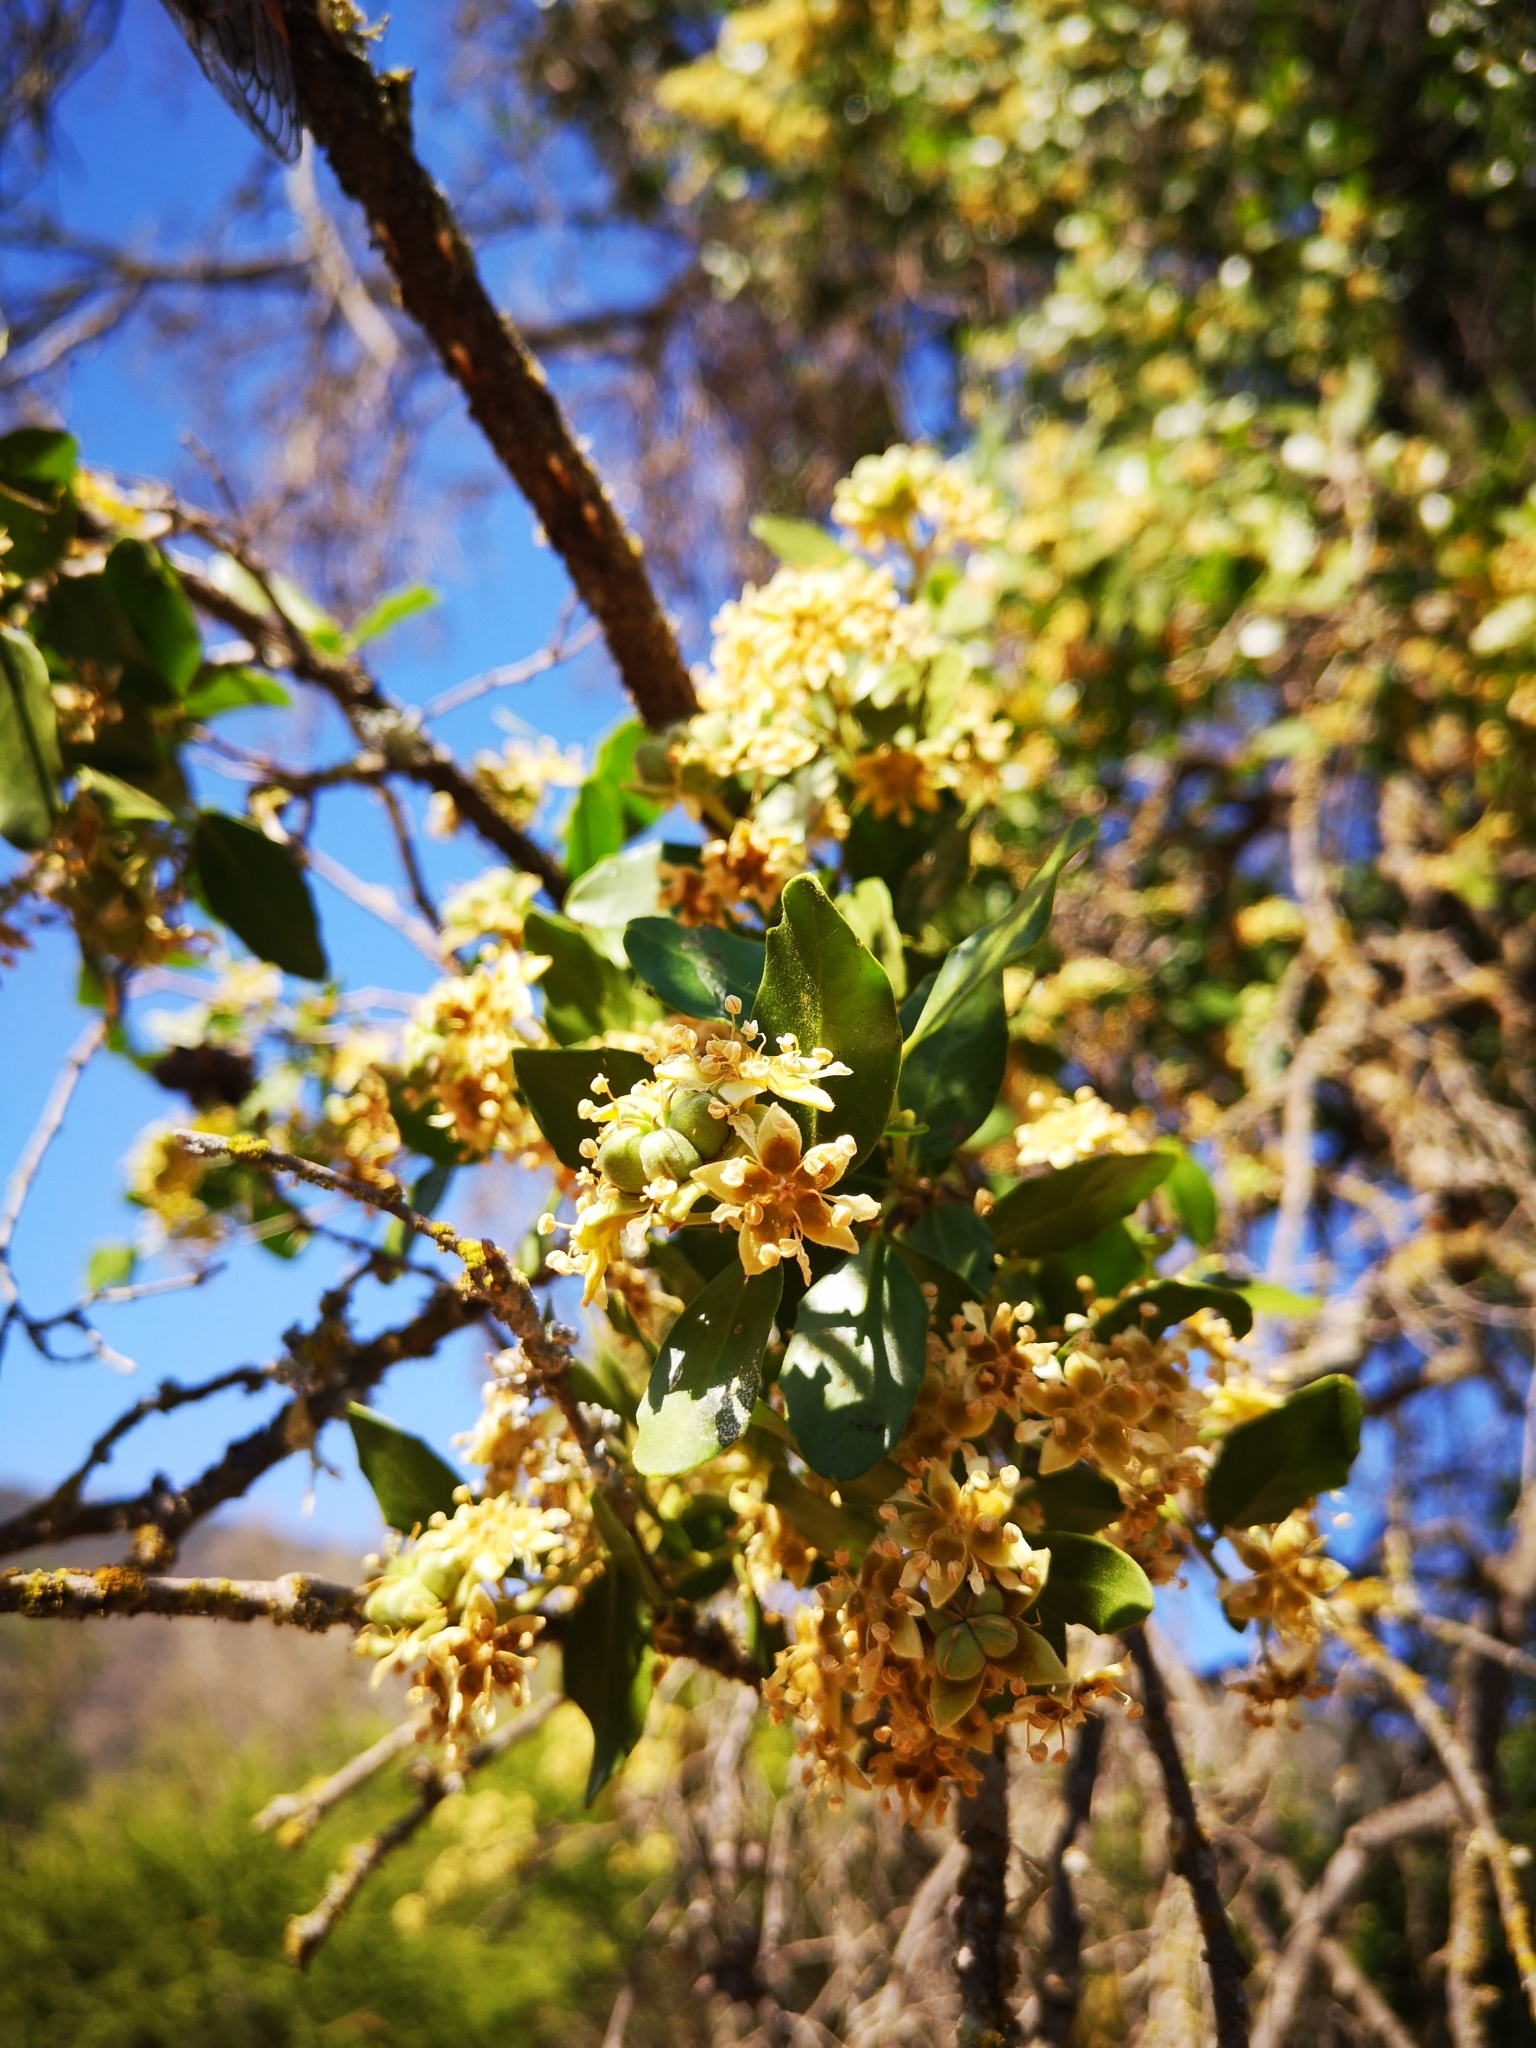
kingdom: Plantae
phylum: Tracheophyta
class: Magnoliopsida
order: Fabales
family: Quillajaceae
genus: Quillaja
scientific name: Quillaja saponaria
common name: Murillo's-bark
